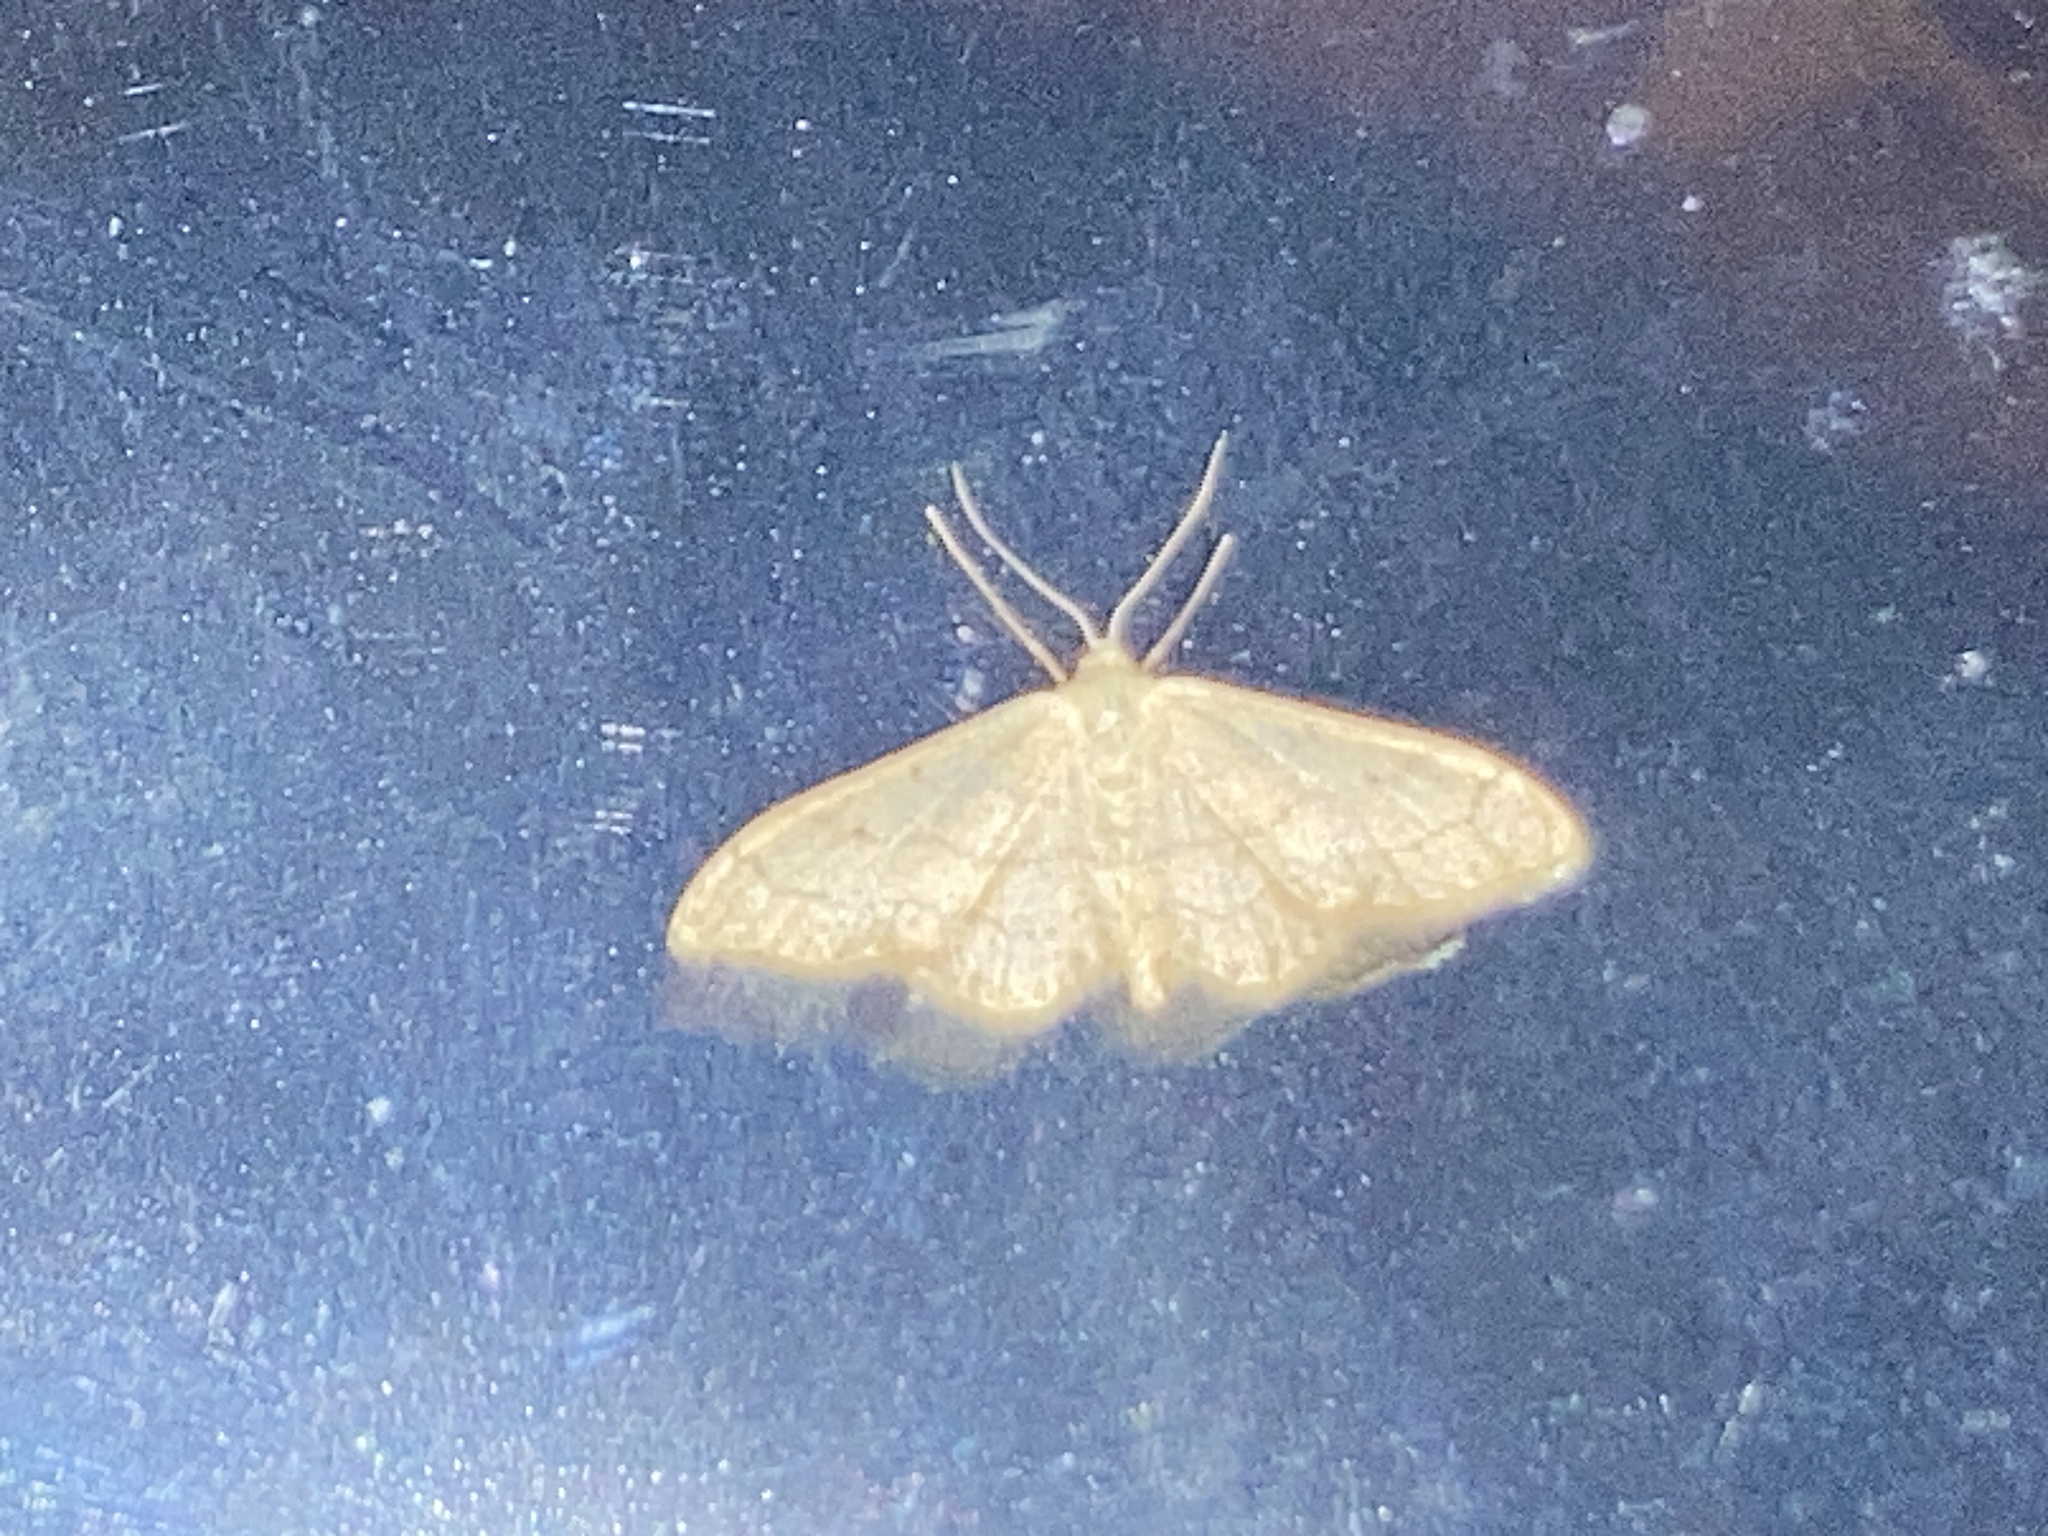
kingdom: Animalia
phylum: Arthropoda
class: Insecta
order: Lepidoptera
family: Geometridae
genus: Idaea
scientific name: Idaea aversata
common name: Riband wave
